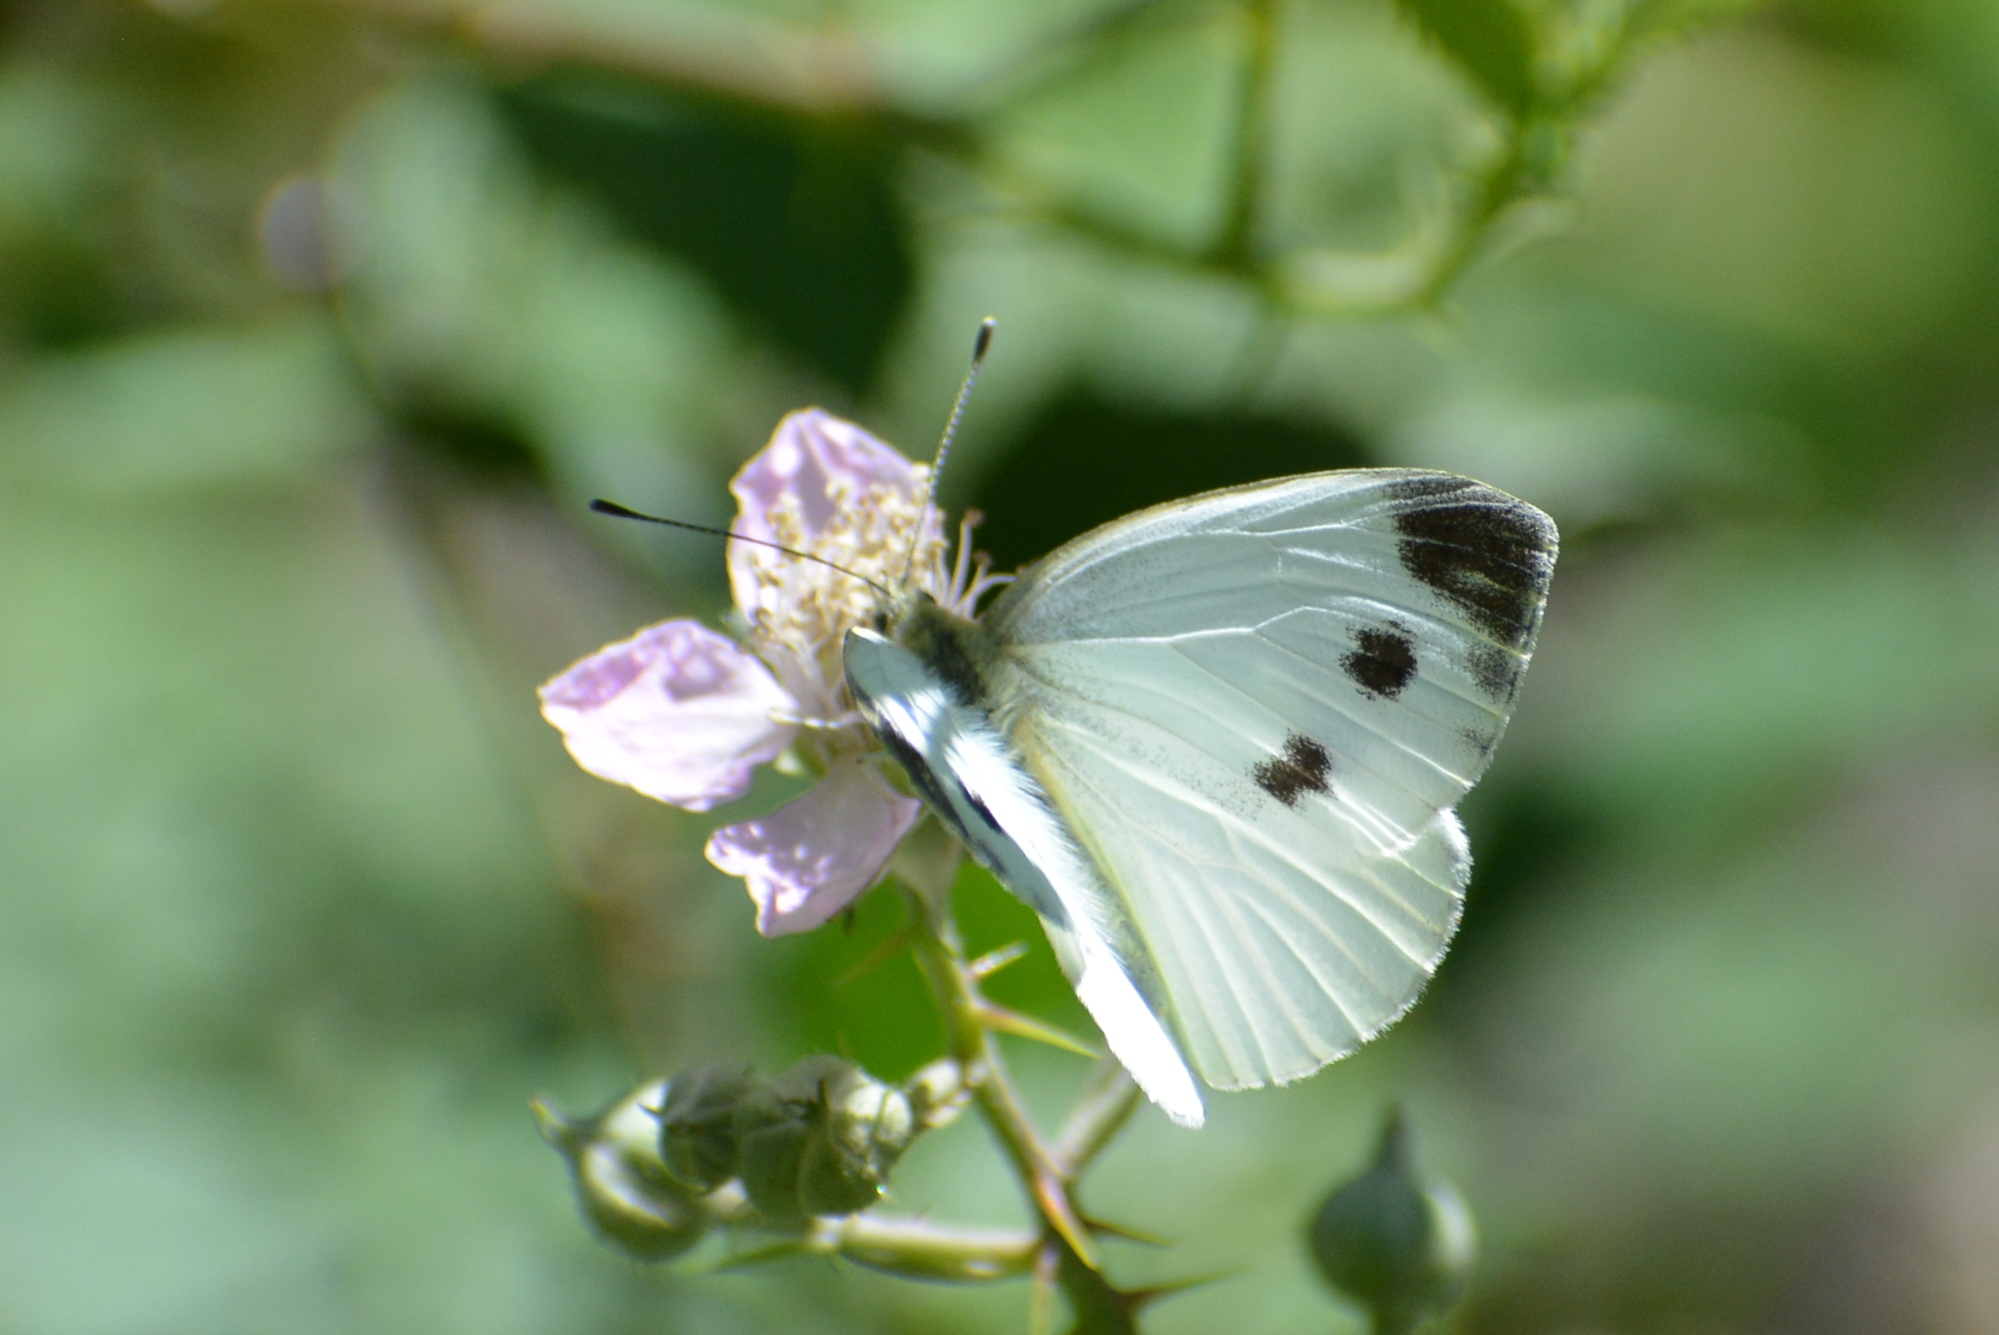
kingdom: Animalia
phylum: Arthropoda
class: Insecta
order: Lepidoptera
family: Pieridae
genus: Pieris
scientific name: Pieris mannii
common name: Southern small white
